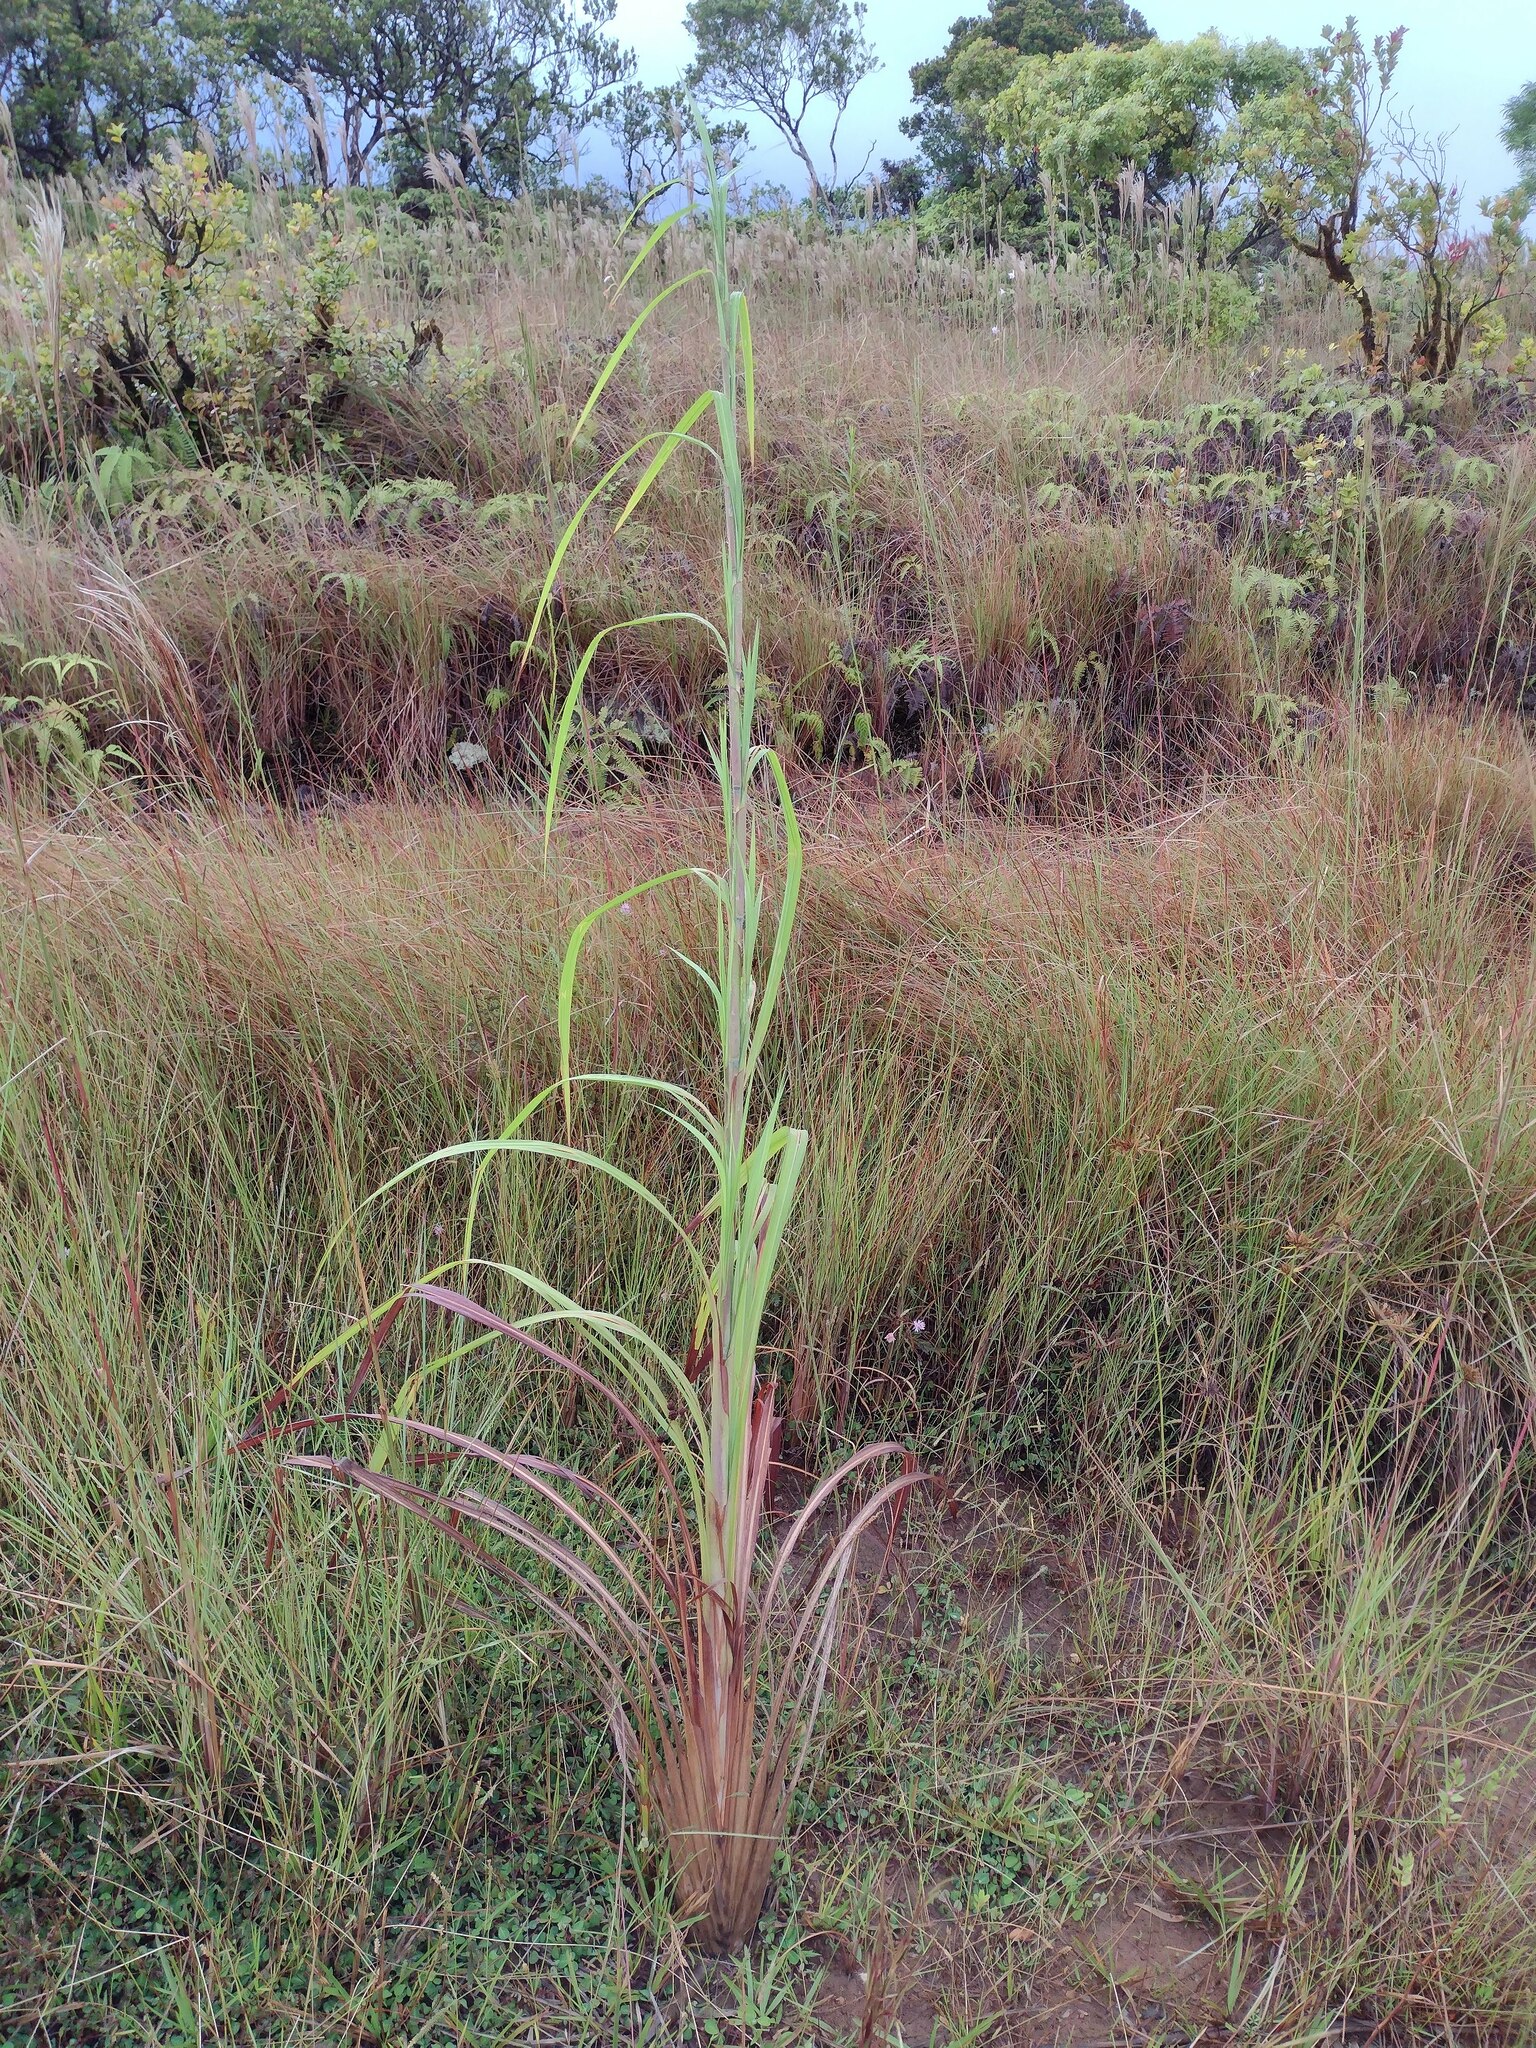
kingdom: Plantae
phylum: Tracheophyta
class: Liliopsida
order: Poales
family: Poaceae
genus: Themeda
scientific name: Themeda villosa
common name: Silky kangaroo grass
